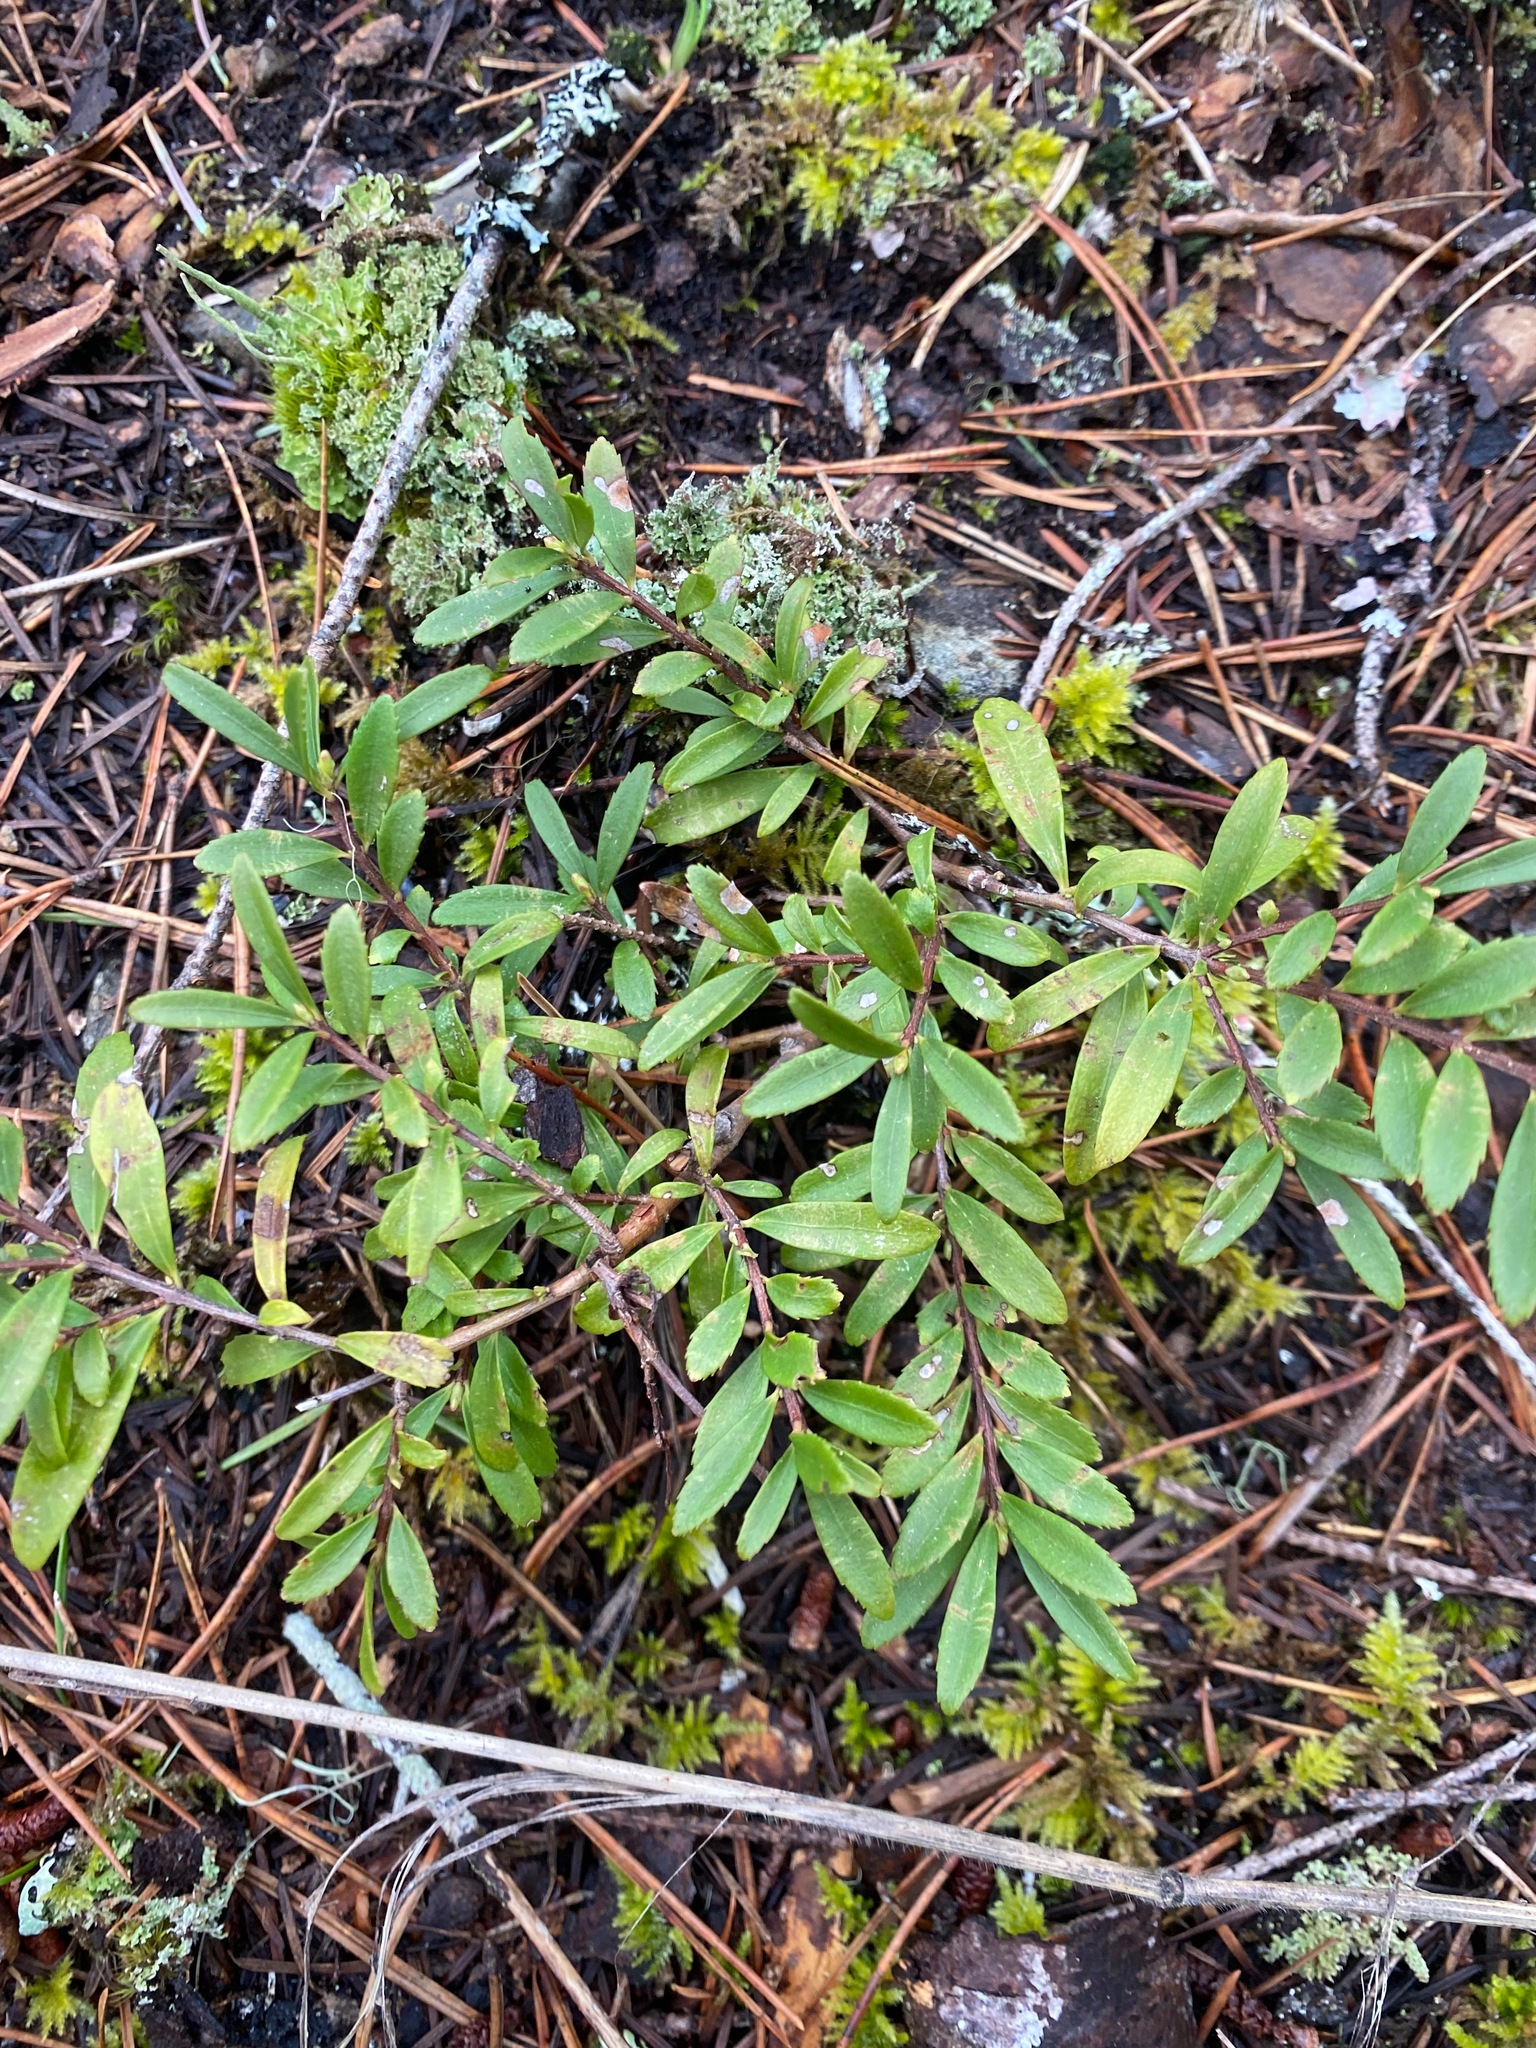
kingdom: Plantae
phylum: Tracheophyta
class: Magnoliopsida
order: Celastrales
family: Celastraceae
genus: Paxistima
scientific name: Paxistima myrsinites
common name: Mountain-lover
